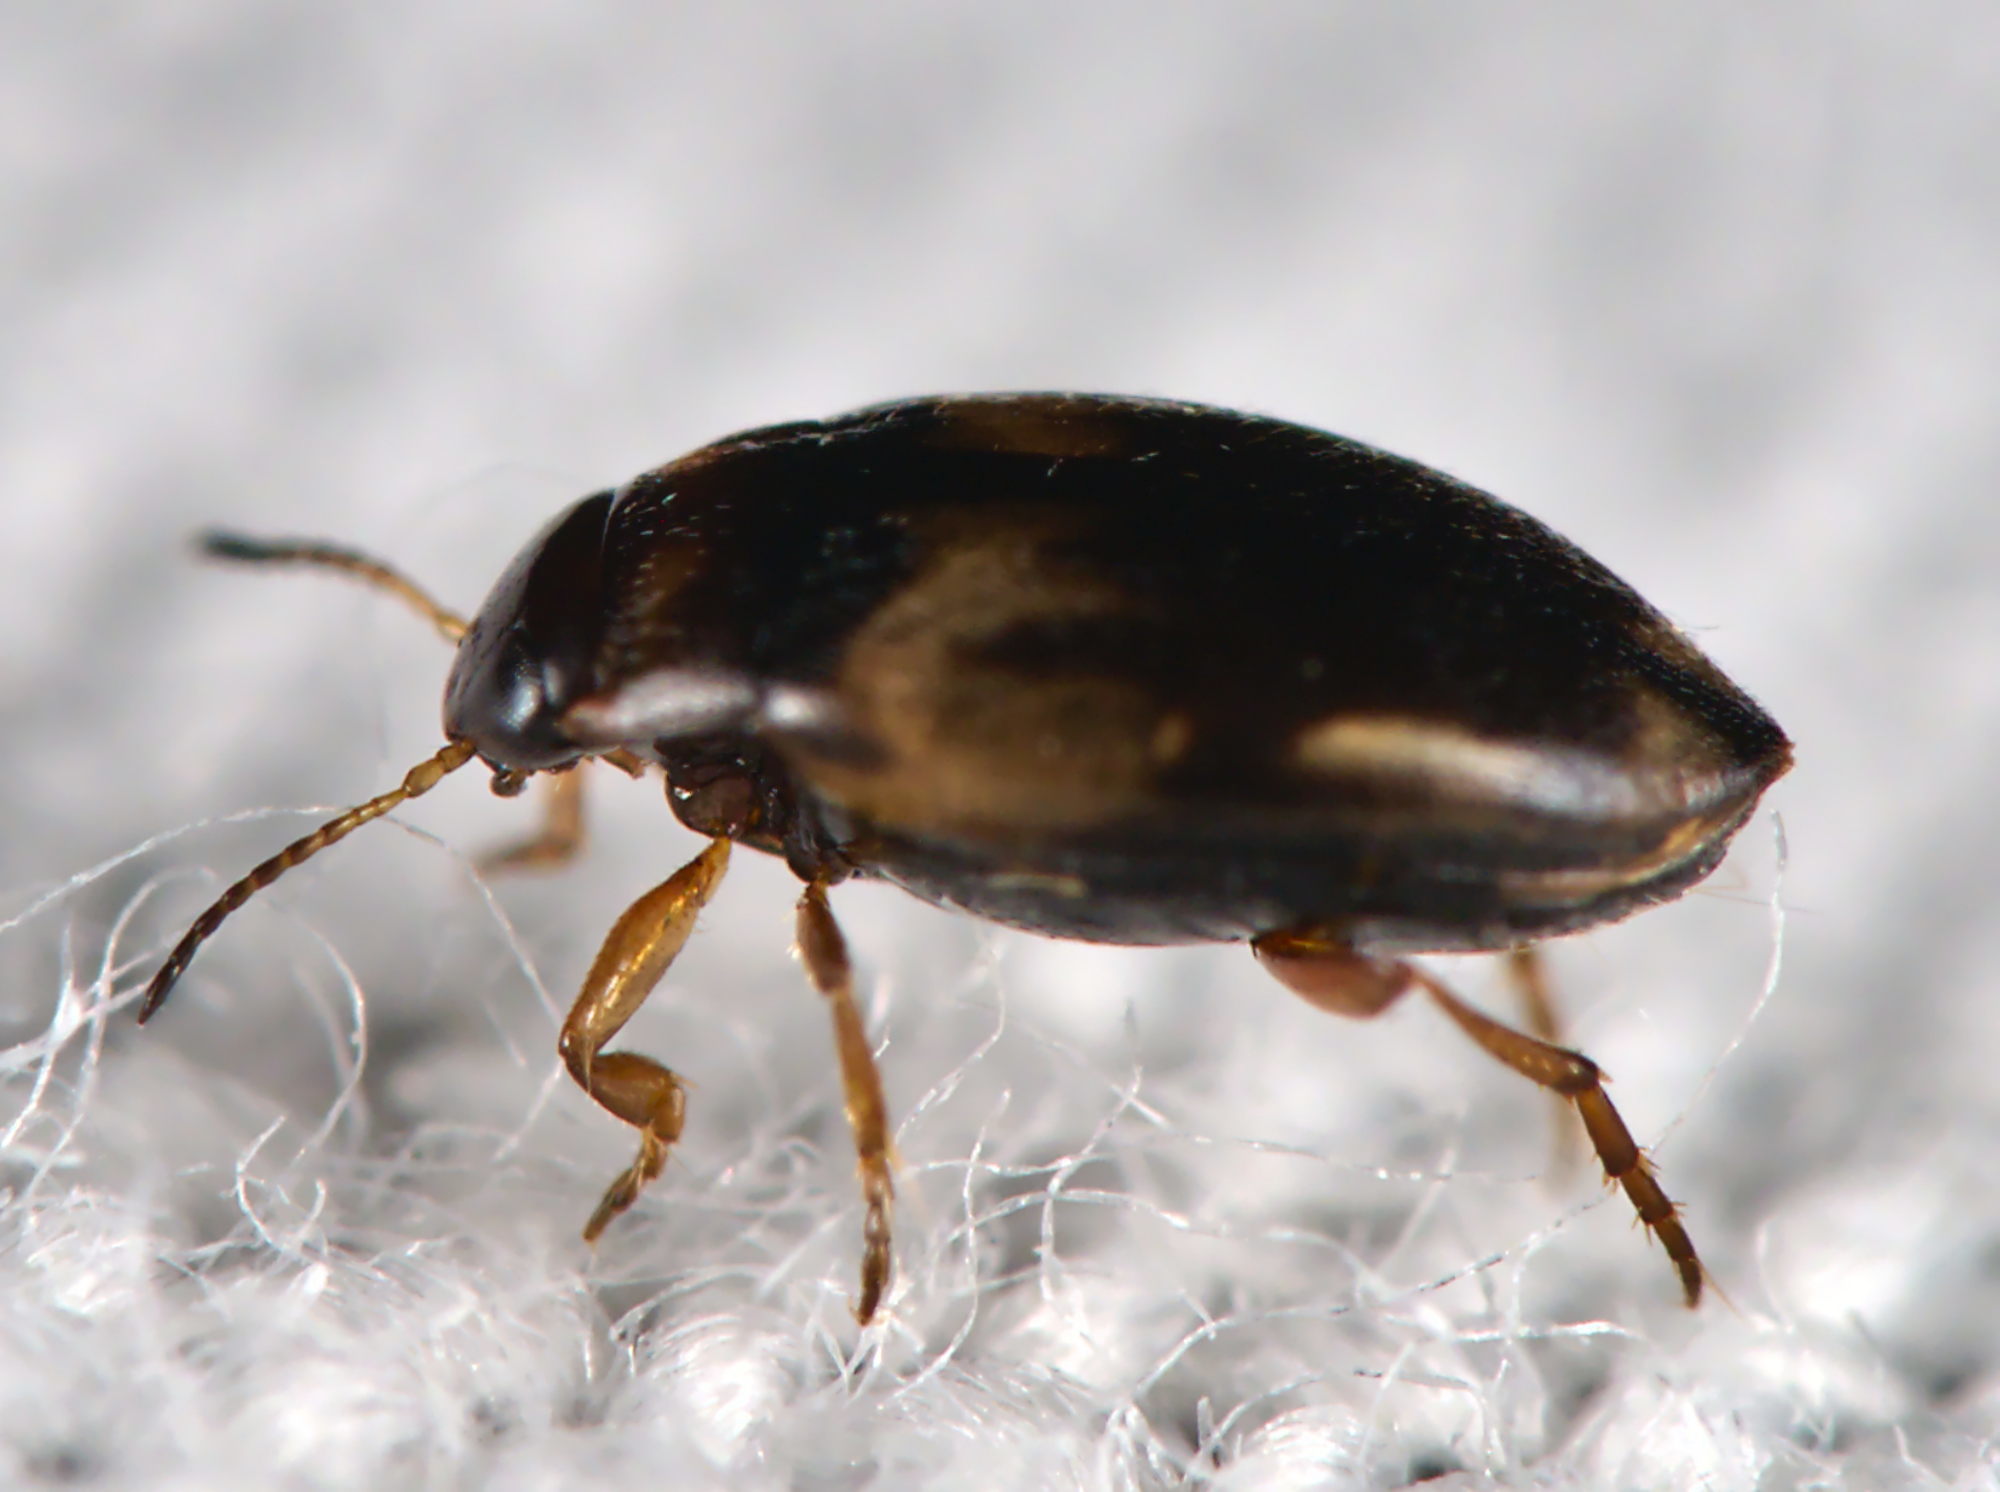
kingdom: Animalia
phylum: Arthropoda
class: Insecta
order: Coleoptera
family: Dytiscidae
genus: Hydroglyphus
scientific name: Hydroglyphus geminus
